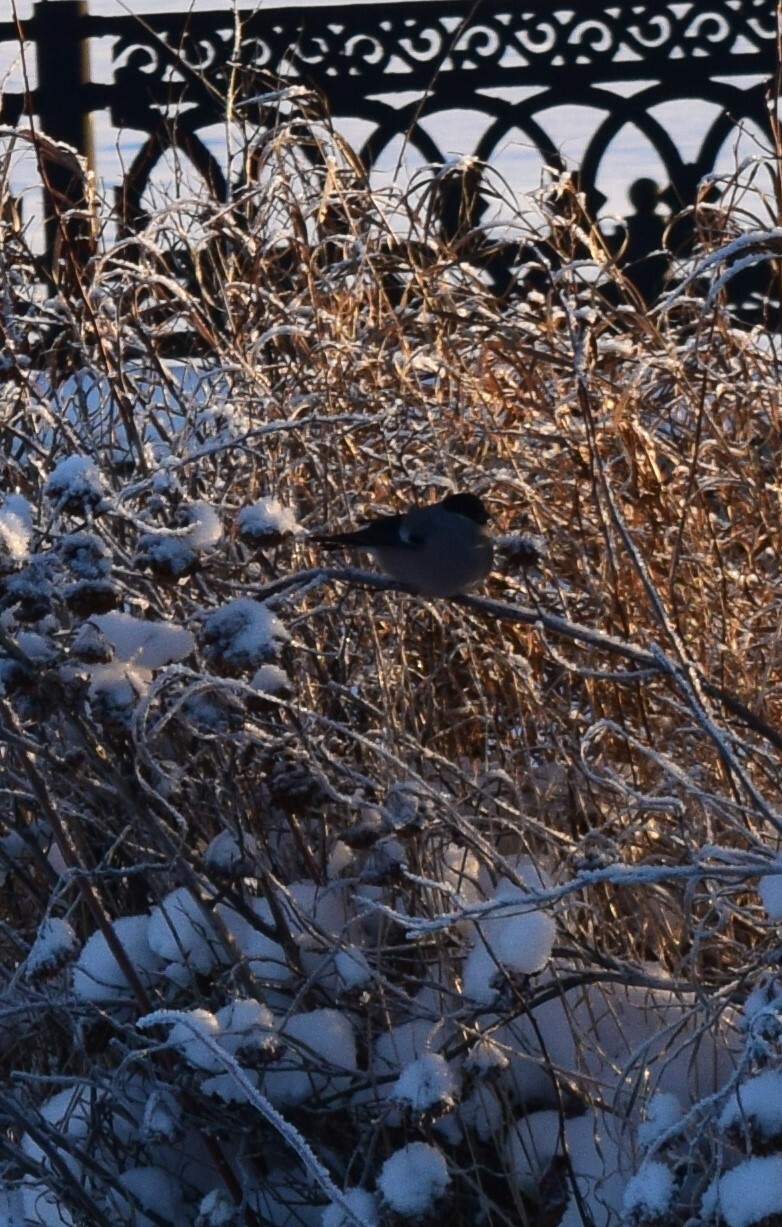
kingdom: Animalia
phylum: Chordata
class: Aves
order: Passeriformes
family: Fringillidae
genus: Pyrrhula
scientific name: Pyrrhula pyrrhula
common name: Eurasian bullfinch
